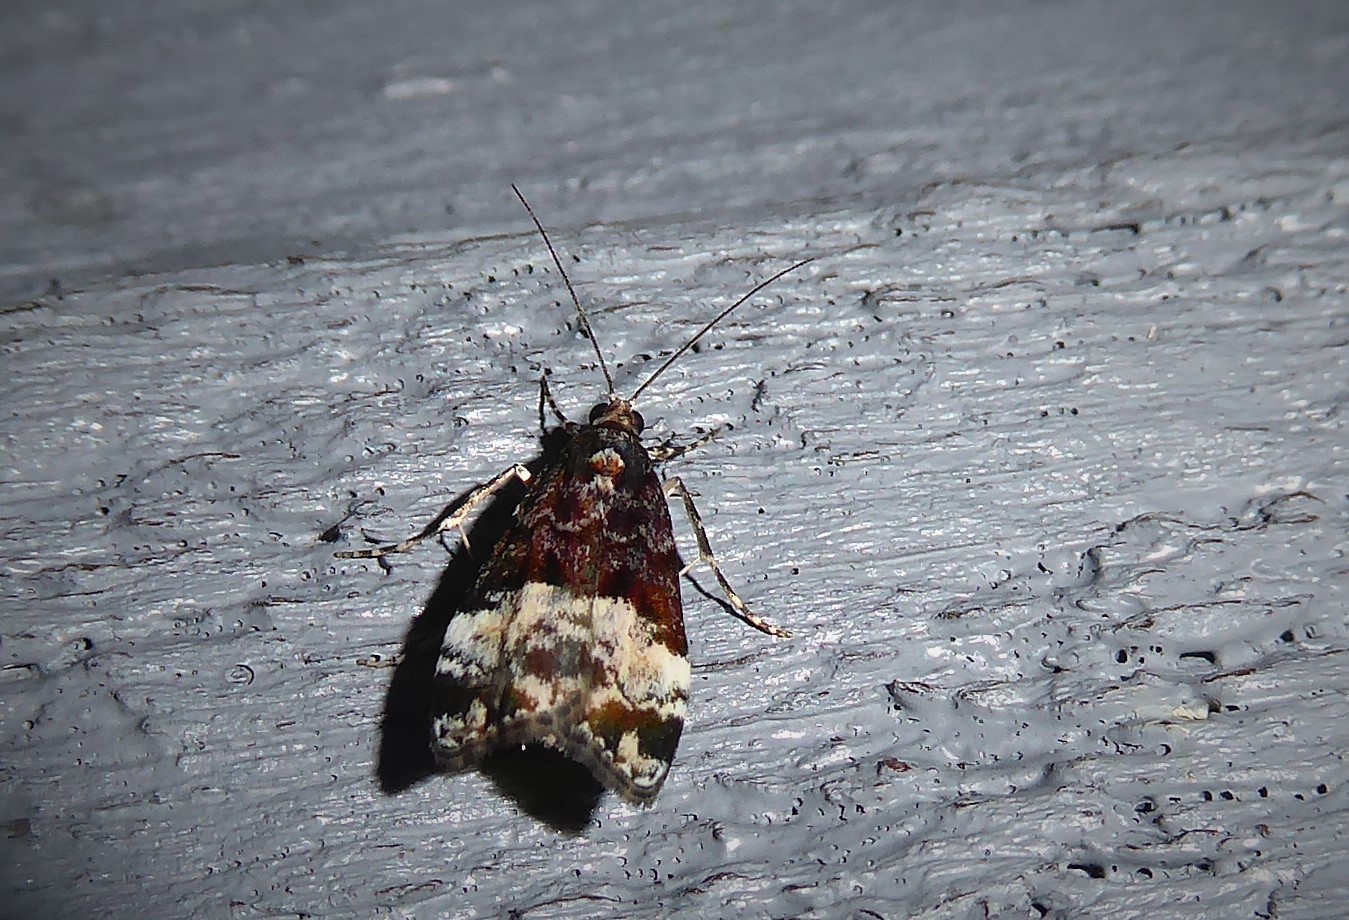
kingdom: Animalia
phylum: Arthropoda
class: Insecta
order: Lepidoptera
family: Crambidae
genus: Scoparia
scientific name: Scoparia minusculalis
